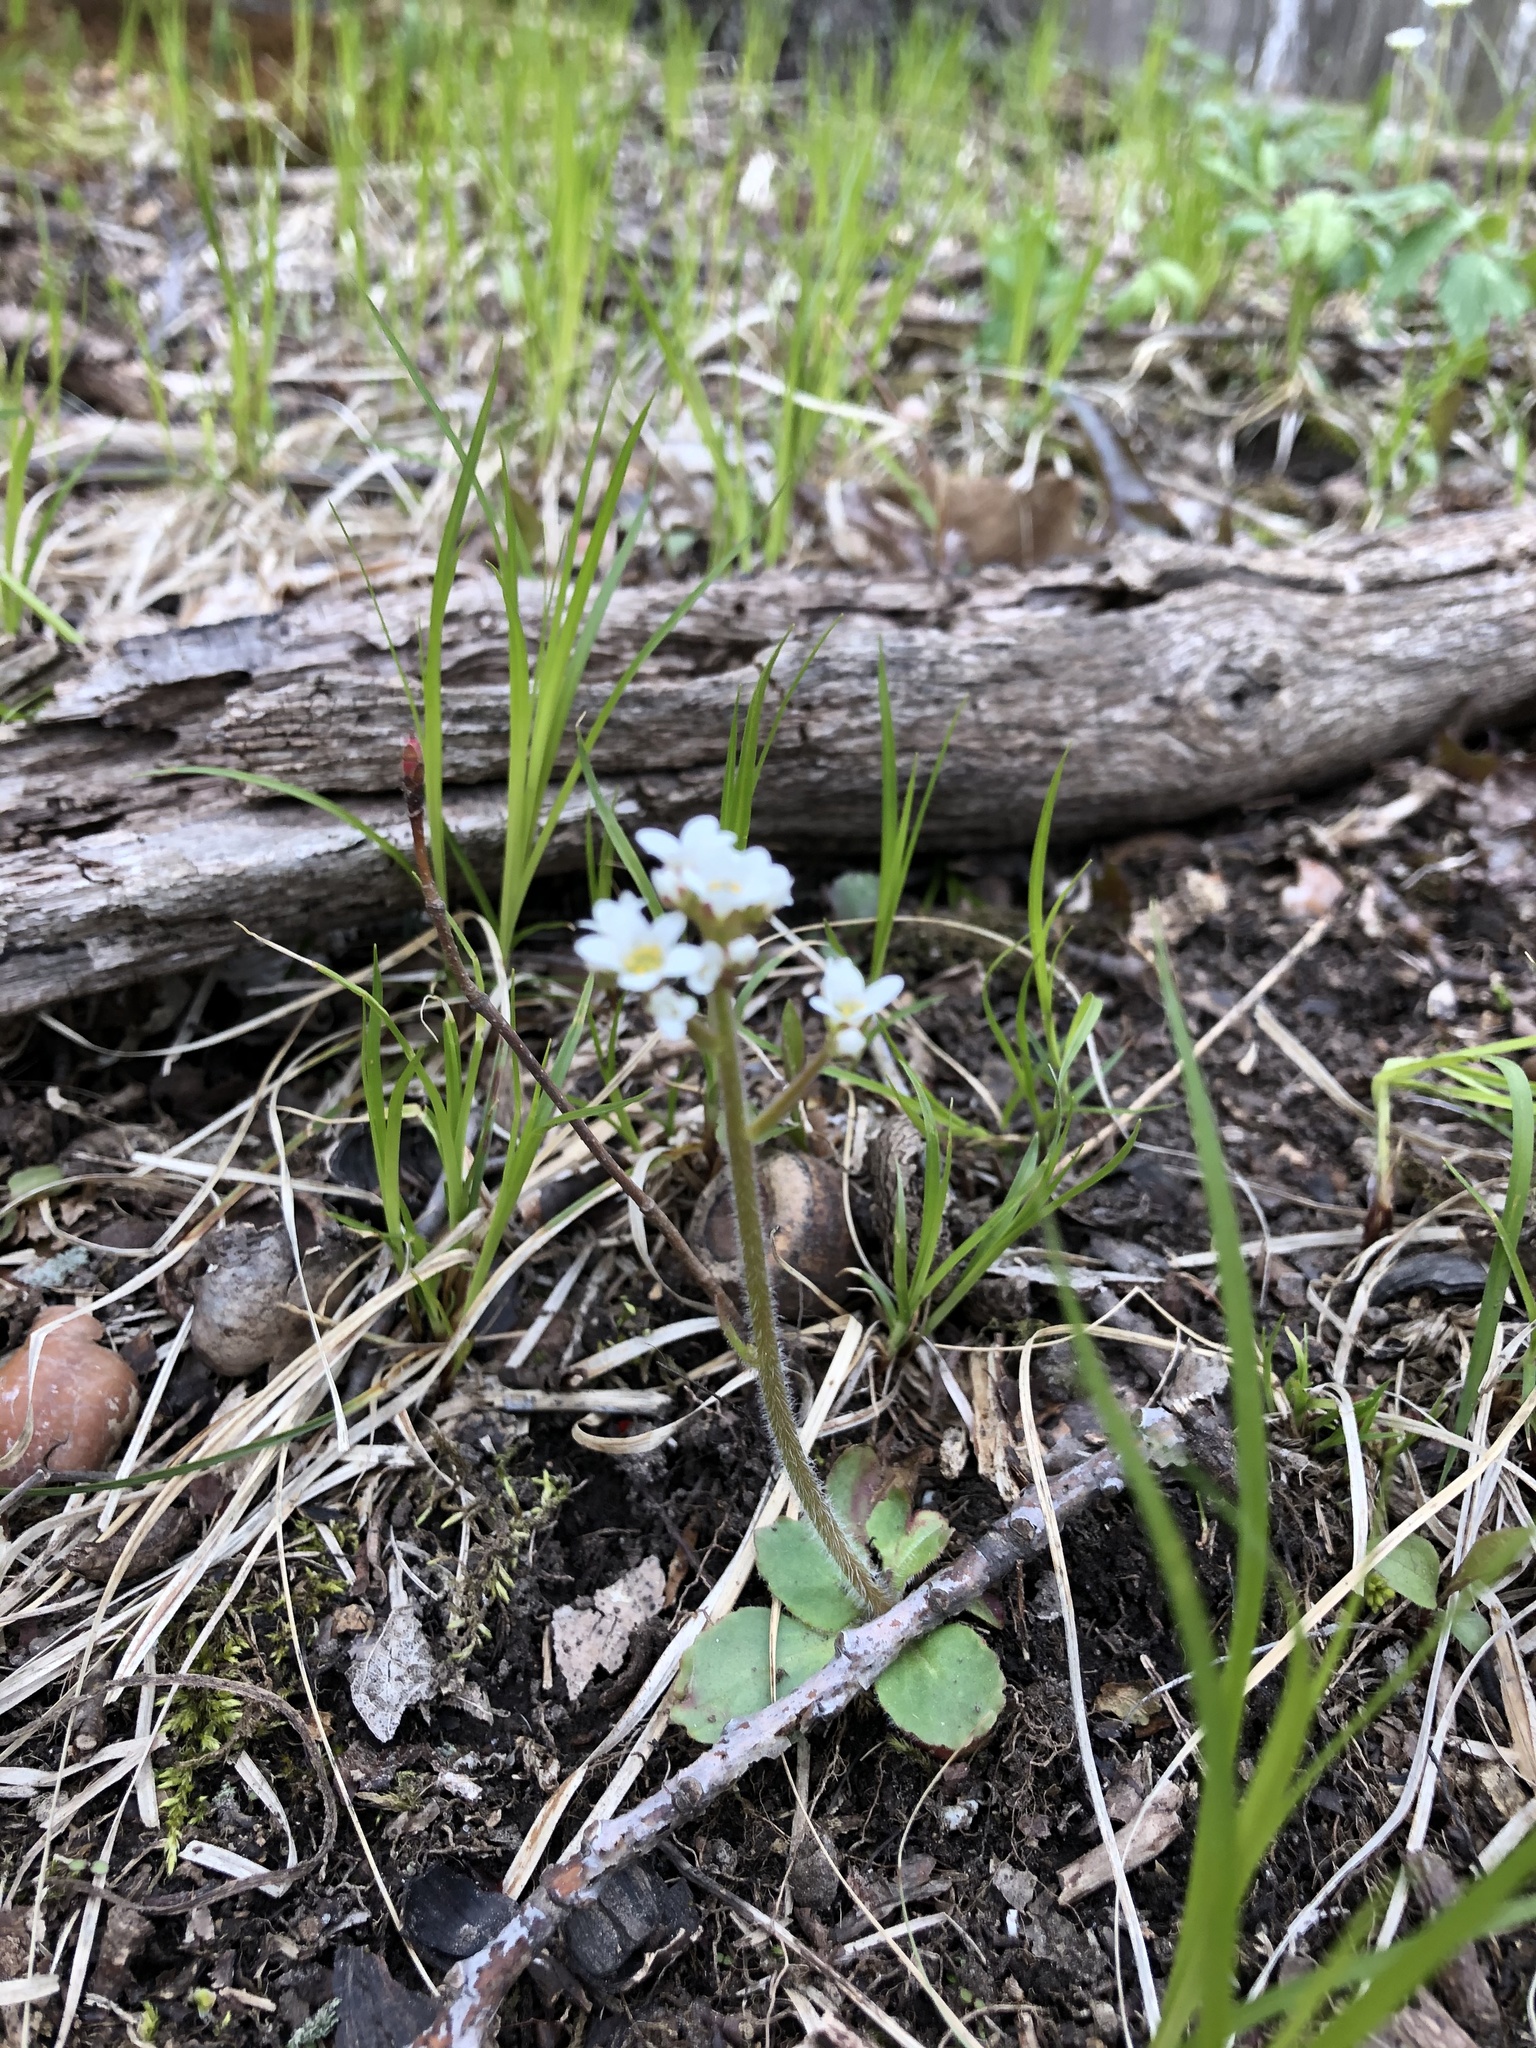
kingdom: Plantae
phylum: Tracheophyta
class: Magnoliopsida
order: Saxifragales
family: Saxifragaceae
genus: Micranthes
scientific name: Micranthes virginiensis
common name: Early saxifrage
